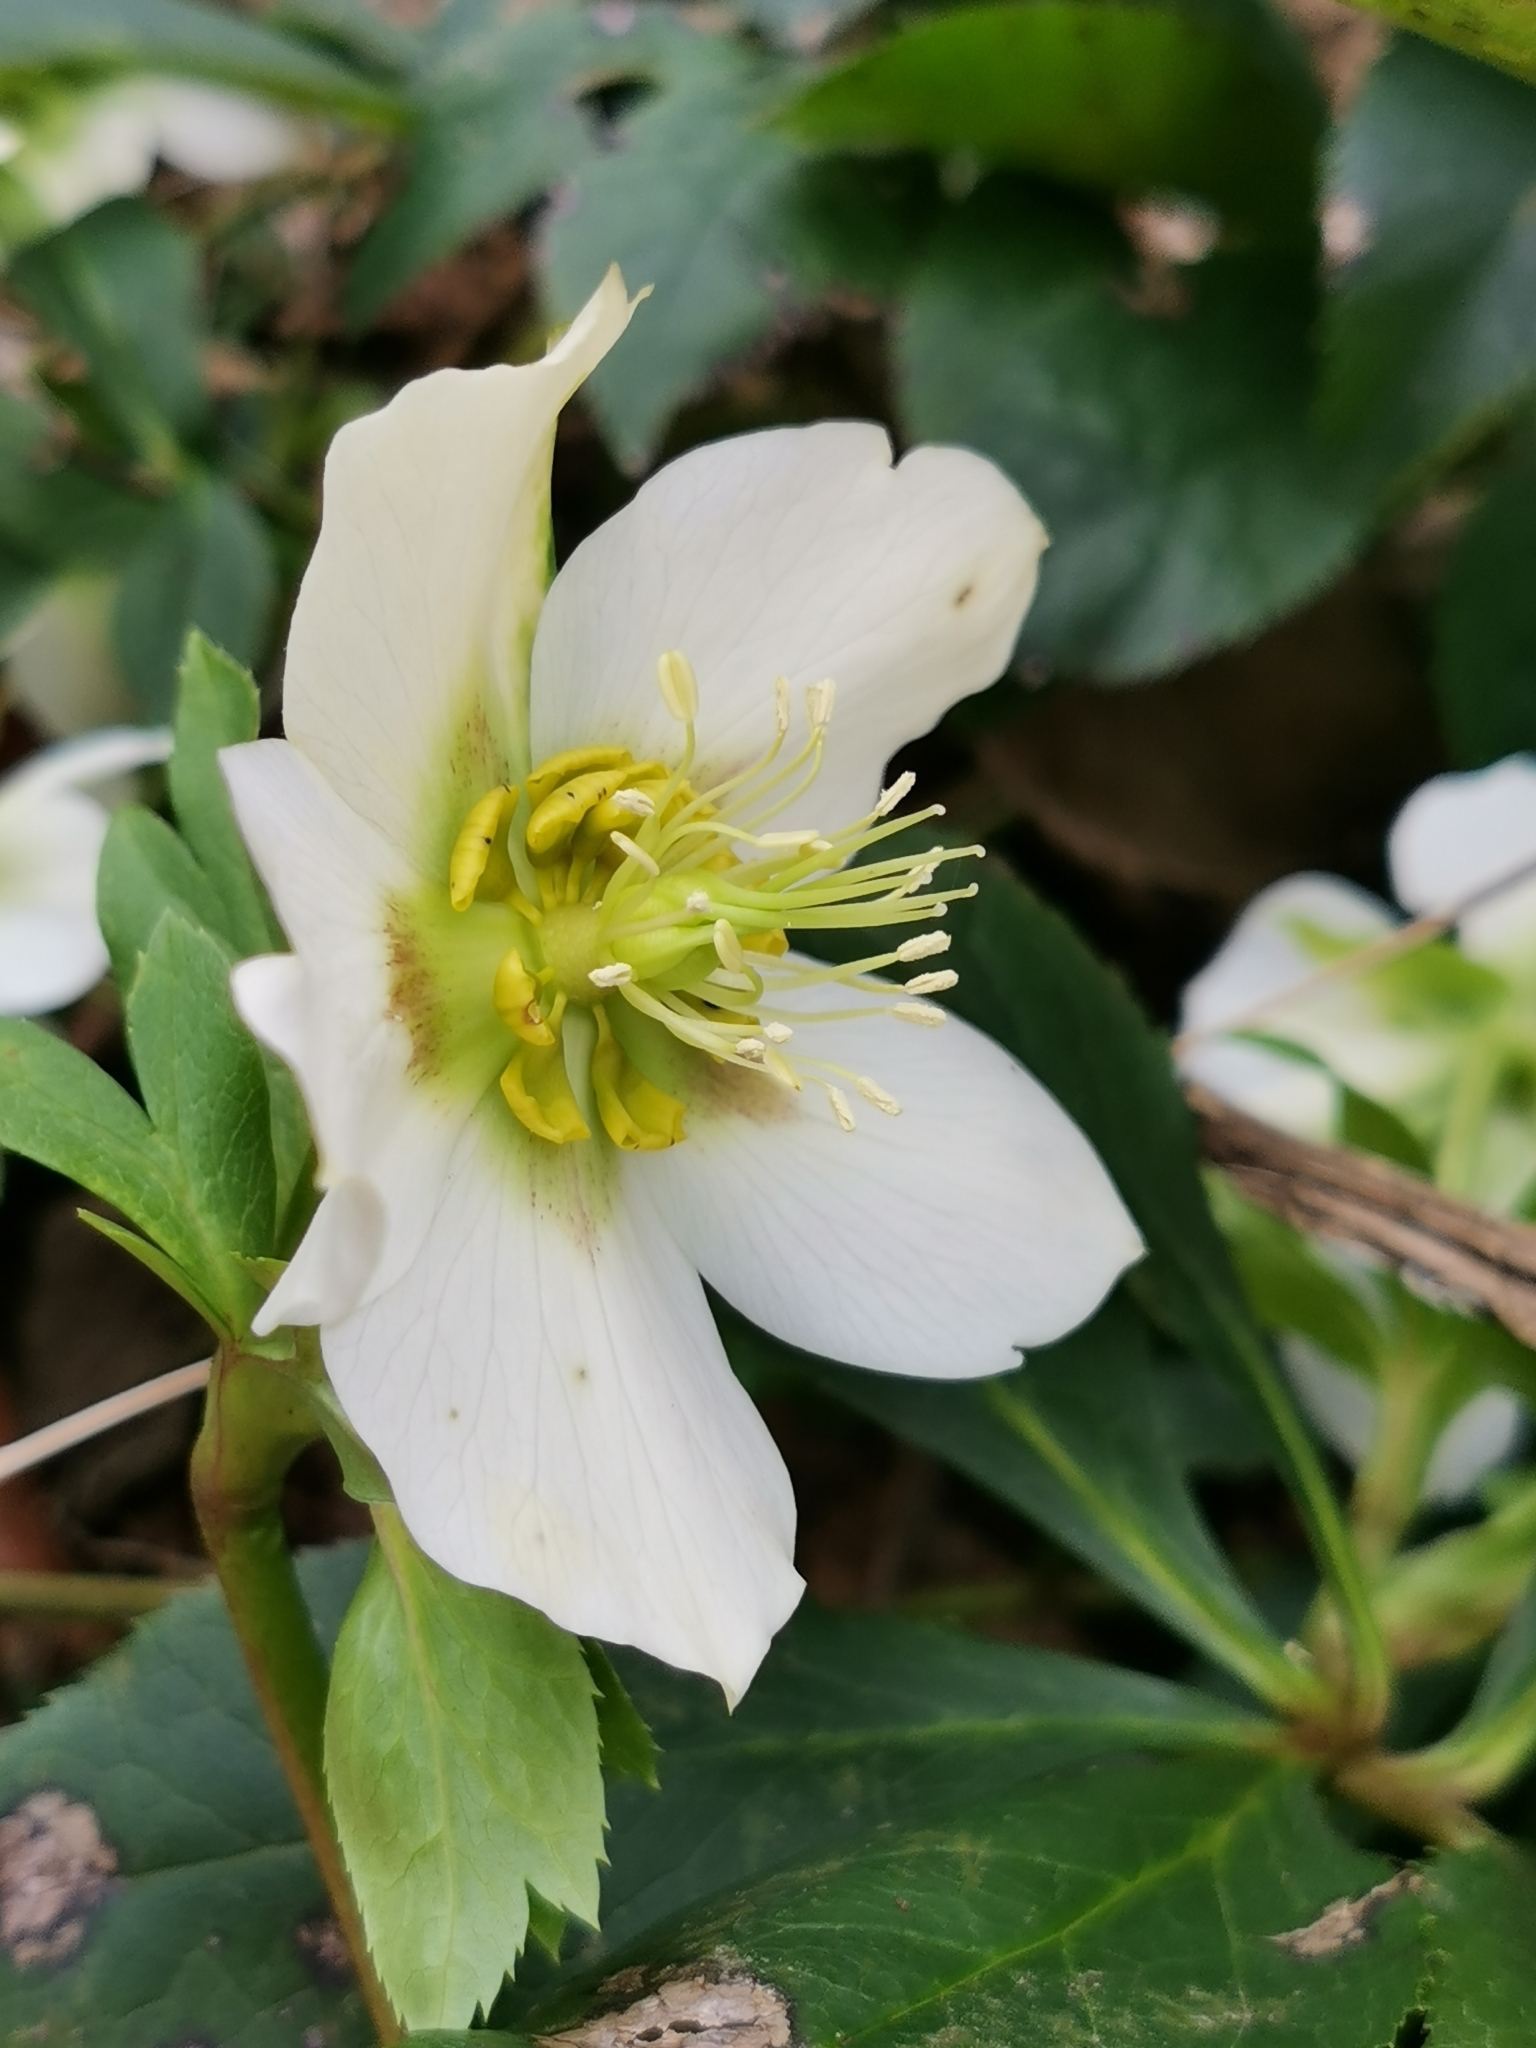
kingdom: Plantae
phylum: Tracheophyta
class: Magnoliopsida
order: Ranunculales
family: Ranunculaceae
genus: Helleborus
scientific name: Helleborus orientalis
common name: Lenten-rose
